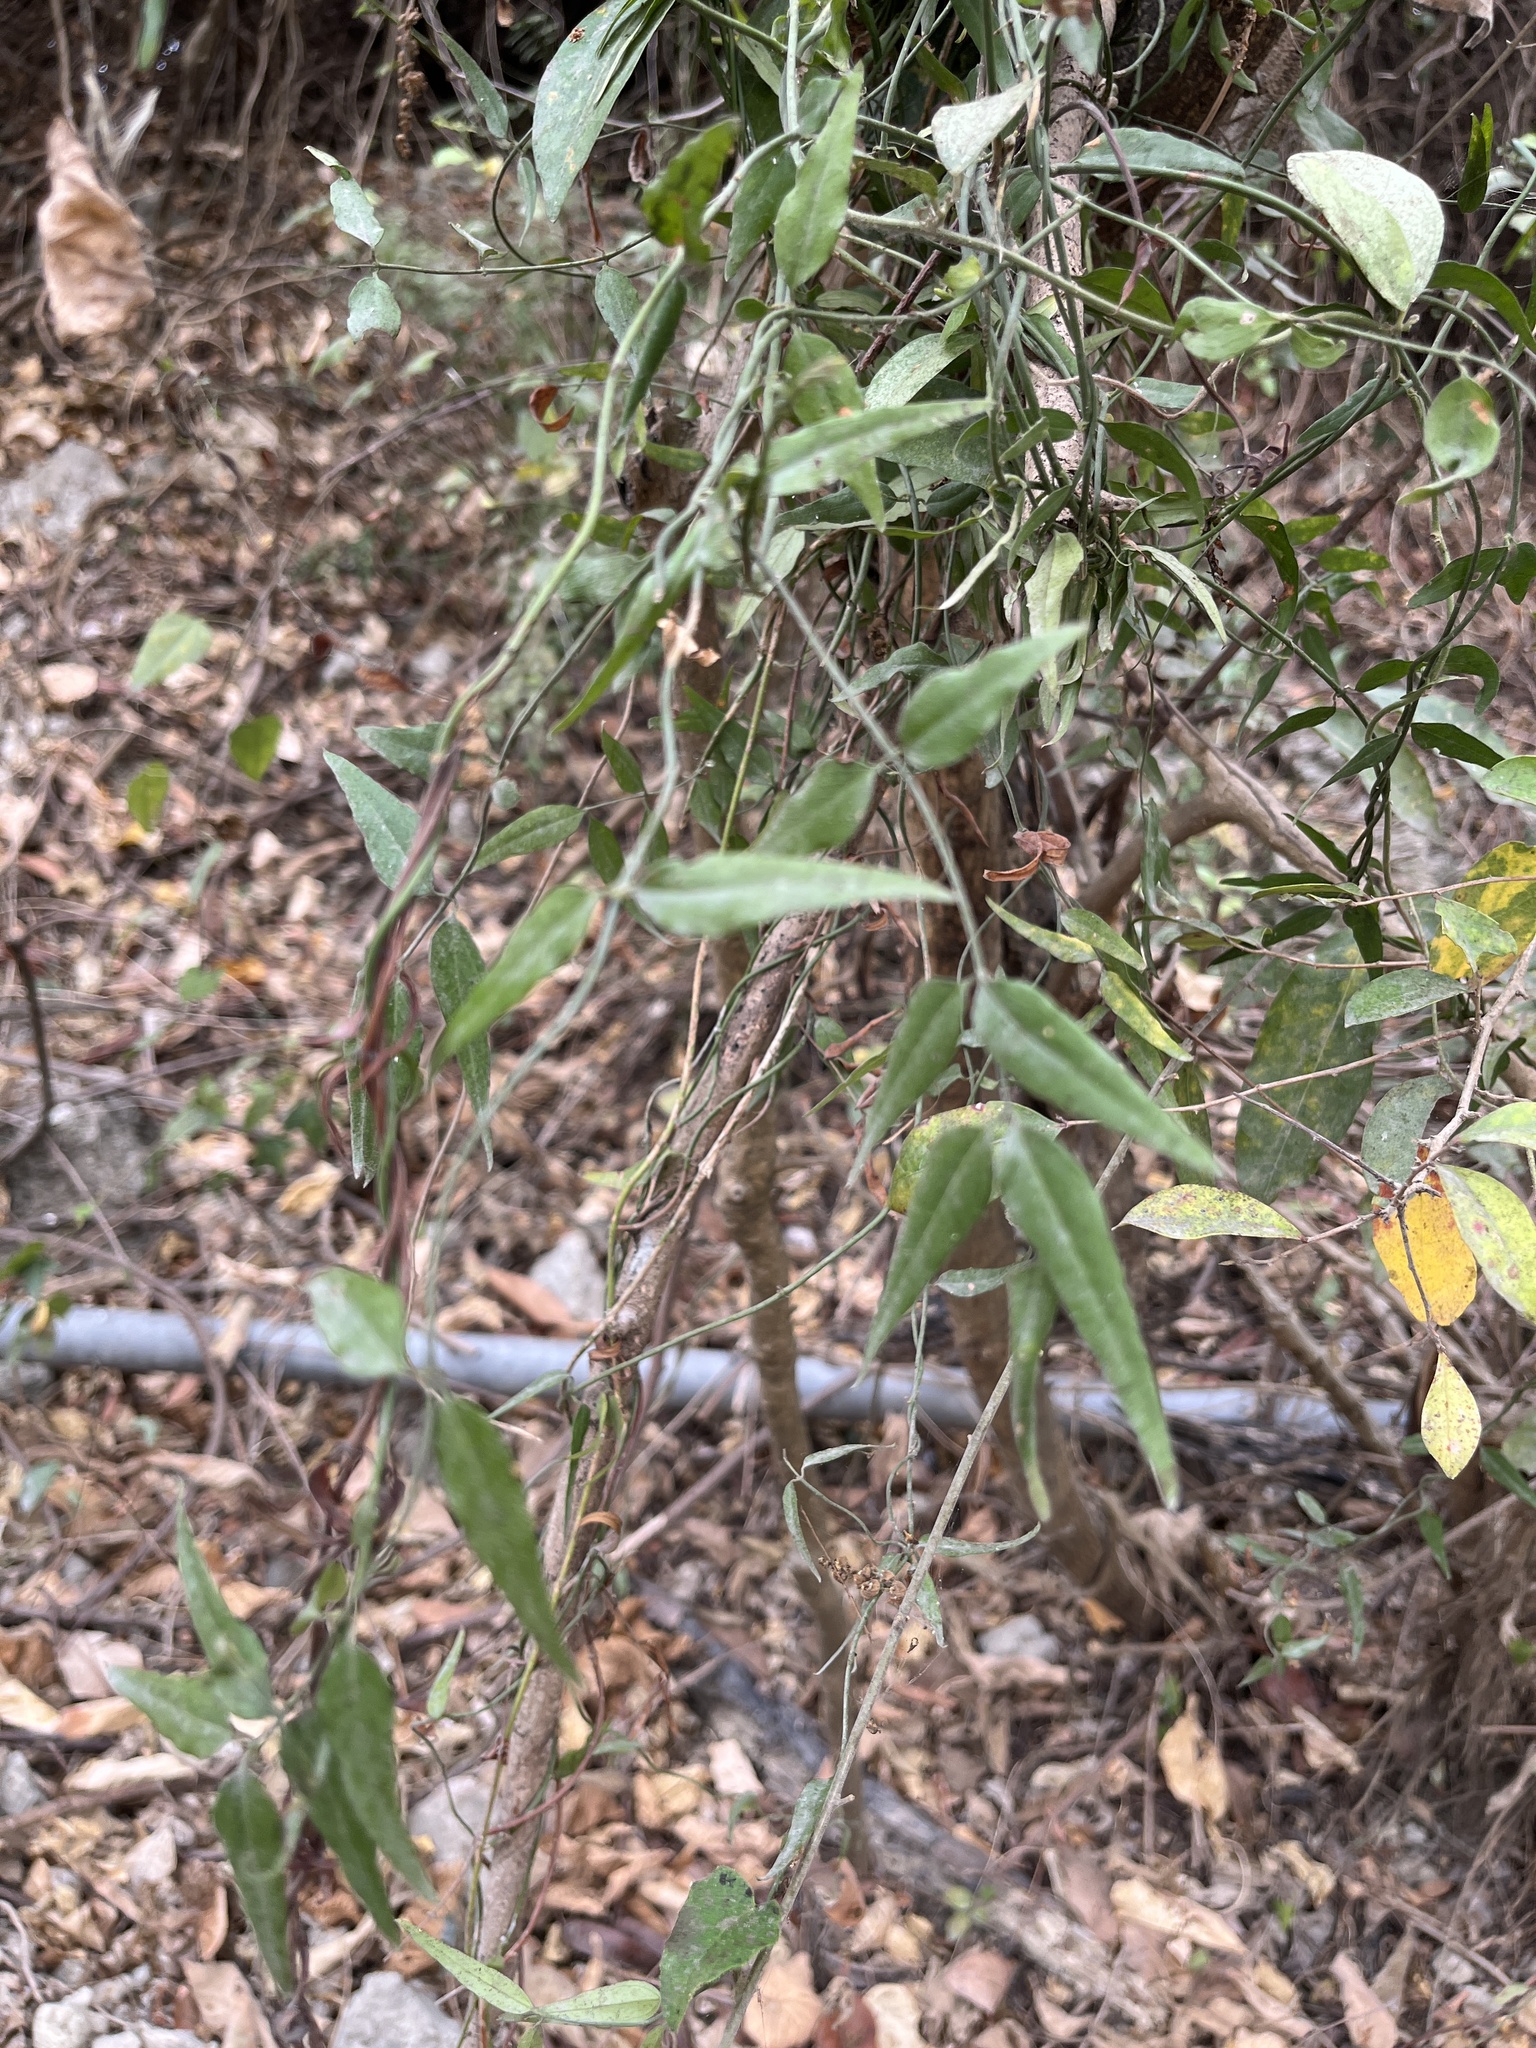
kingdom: Plantae
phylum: Tracheophyta
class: Magnoliopsida
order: Lamiales
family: Oleaceae
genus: Jasminum
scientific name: Jasminum nervosum
